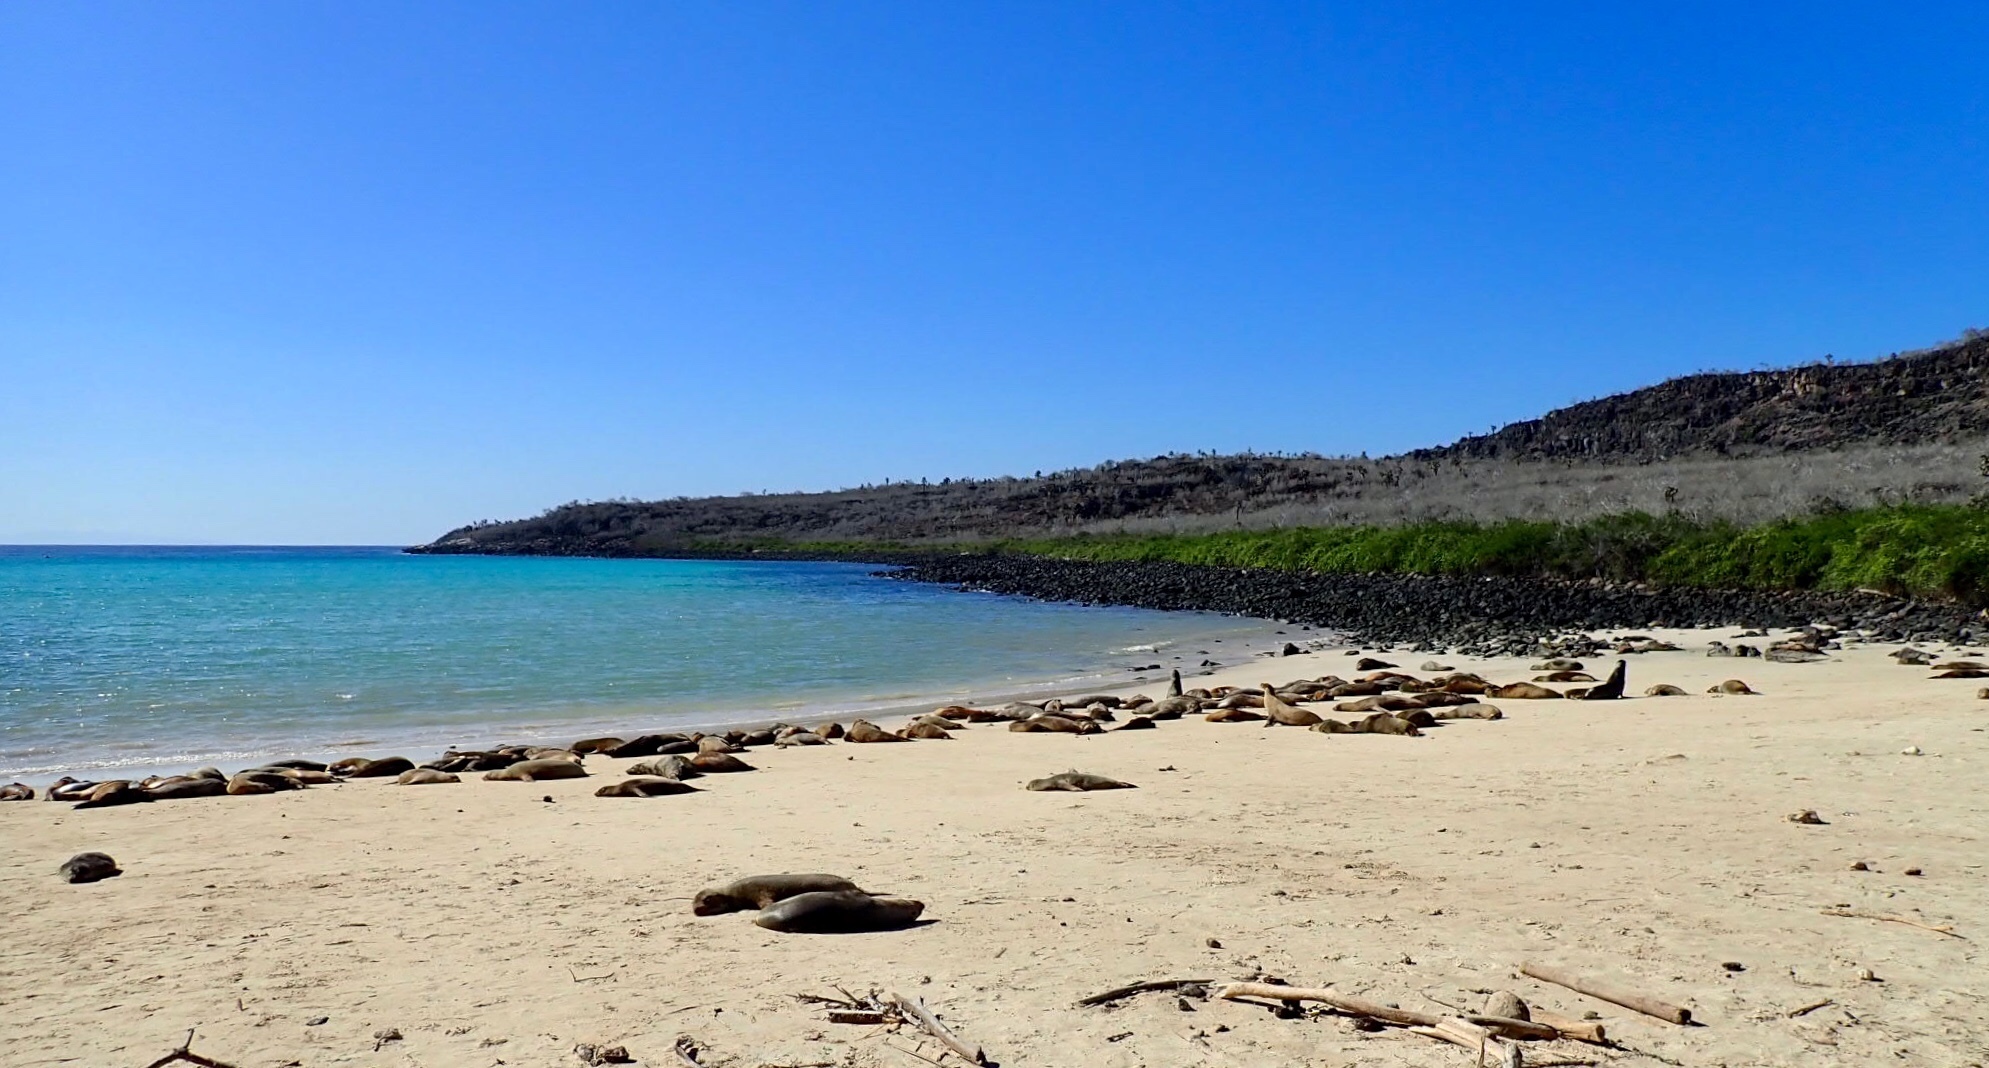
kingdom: Animalia
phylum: Chordata
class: Mammalia
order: Carnivora
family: Otariidae
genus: Zalophus
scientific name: Zalophus wollebaeki
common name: Galapagos sea lion
